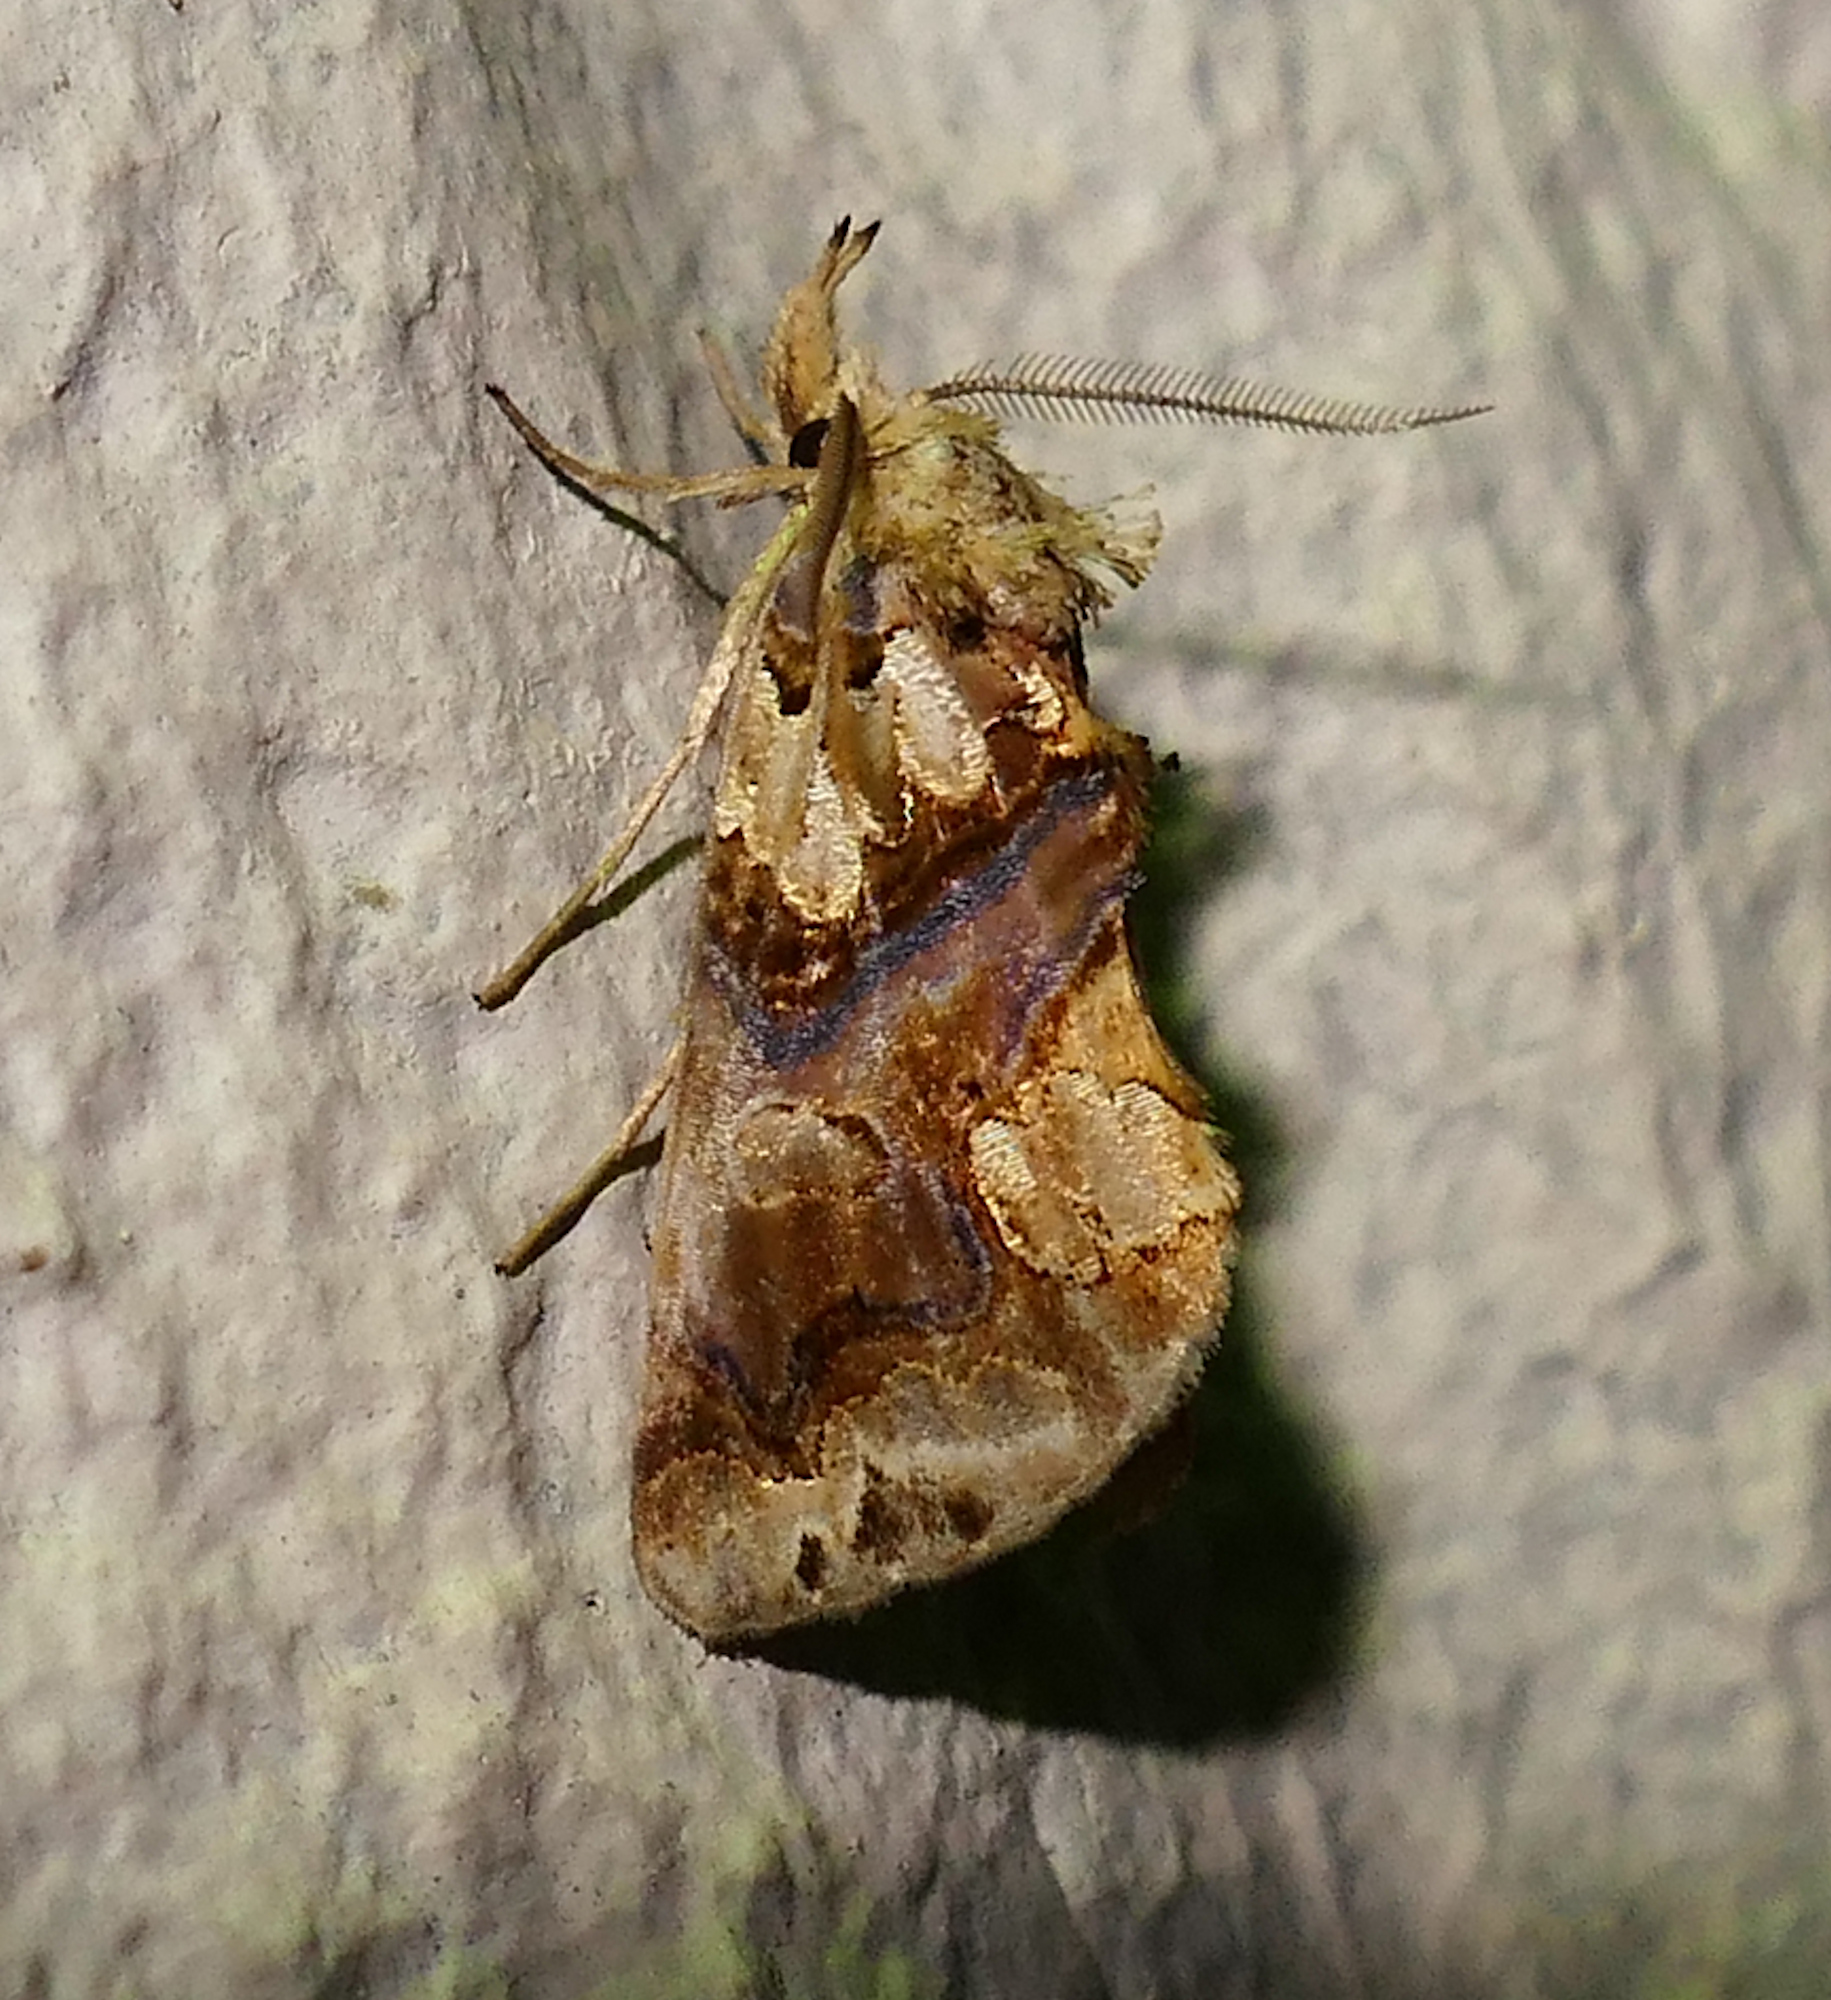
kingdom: Animalia
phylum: Arthropoda
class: Insecta
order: Lepidoptera
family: Erebidae
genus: Plusiodonta
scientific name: Plusiodonta compressipalpis
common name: Moonseed moth
